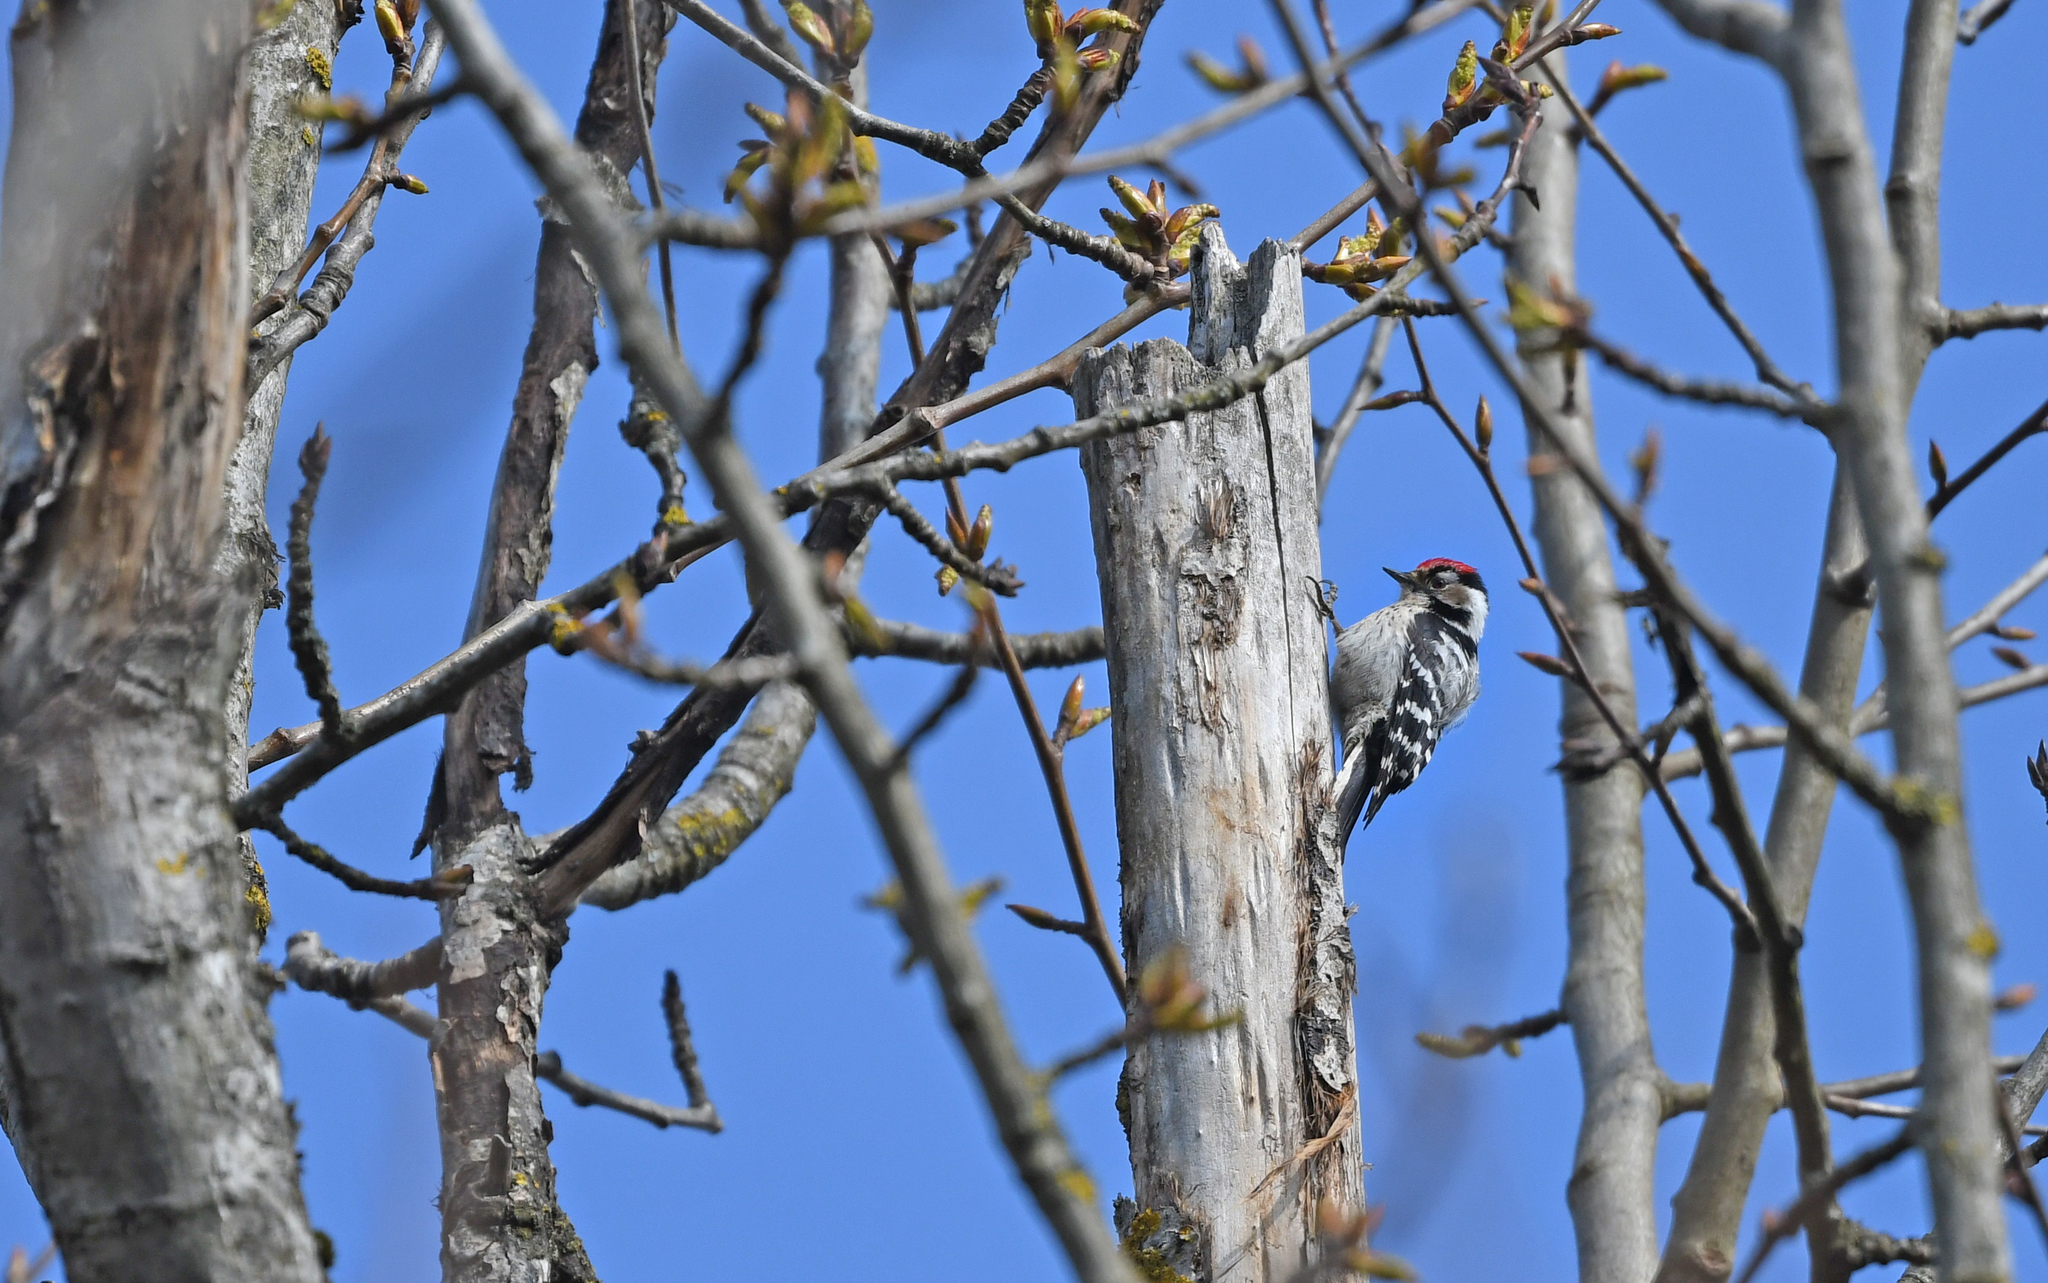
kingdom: Animalia
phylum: Chordata
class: Aves
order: Piciformes
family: Picidae
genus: Dryobates
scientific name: Dryobates minor
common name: Lesser spotted woodpecker
